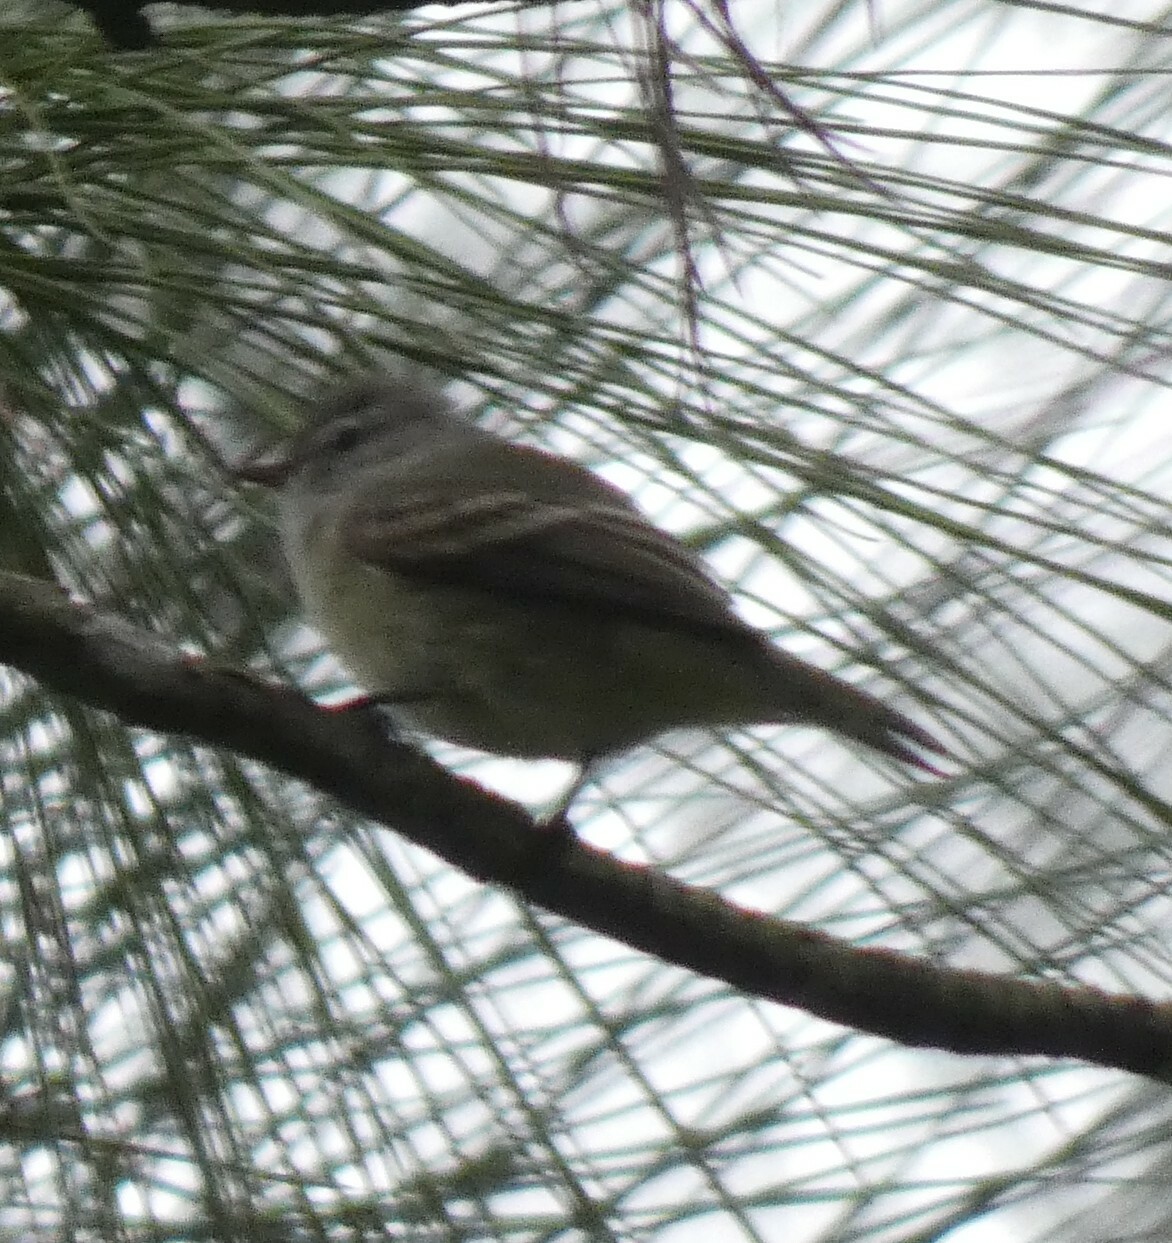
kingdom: Animalia
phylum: Chordata
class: Aves
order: Passeriformes
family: Tyrannidae
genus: Camptostoma
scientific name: Camptostoma obsoletum
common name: Southern beardless-tyrannulet
